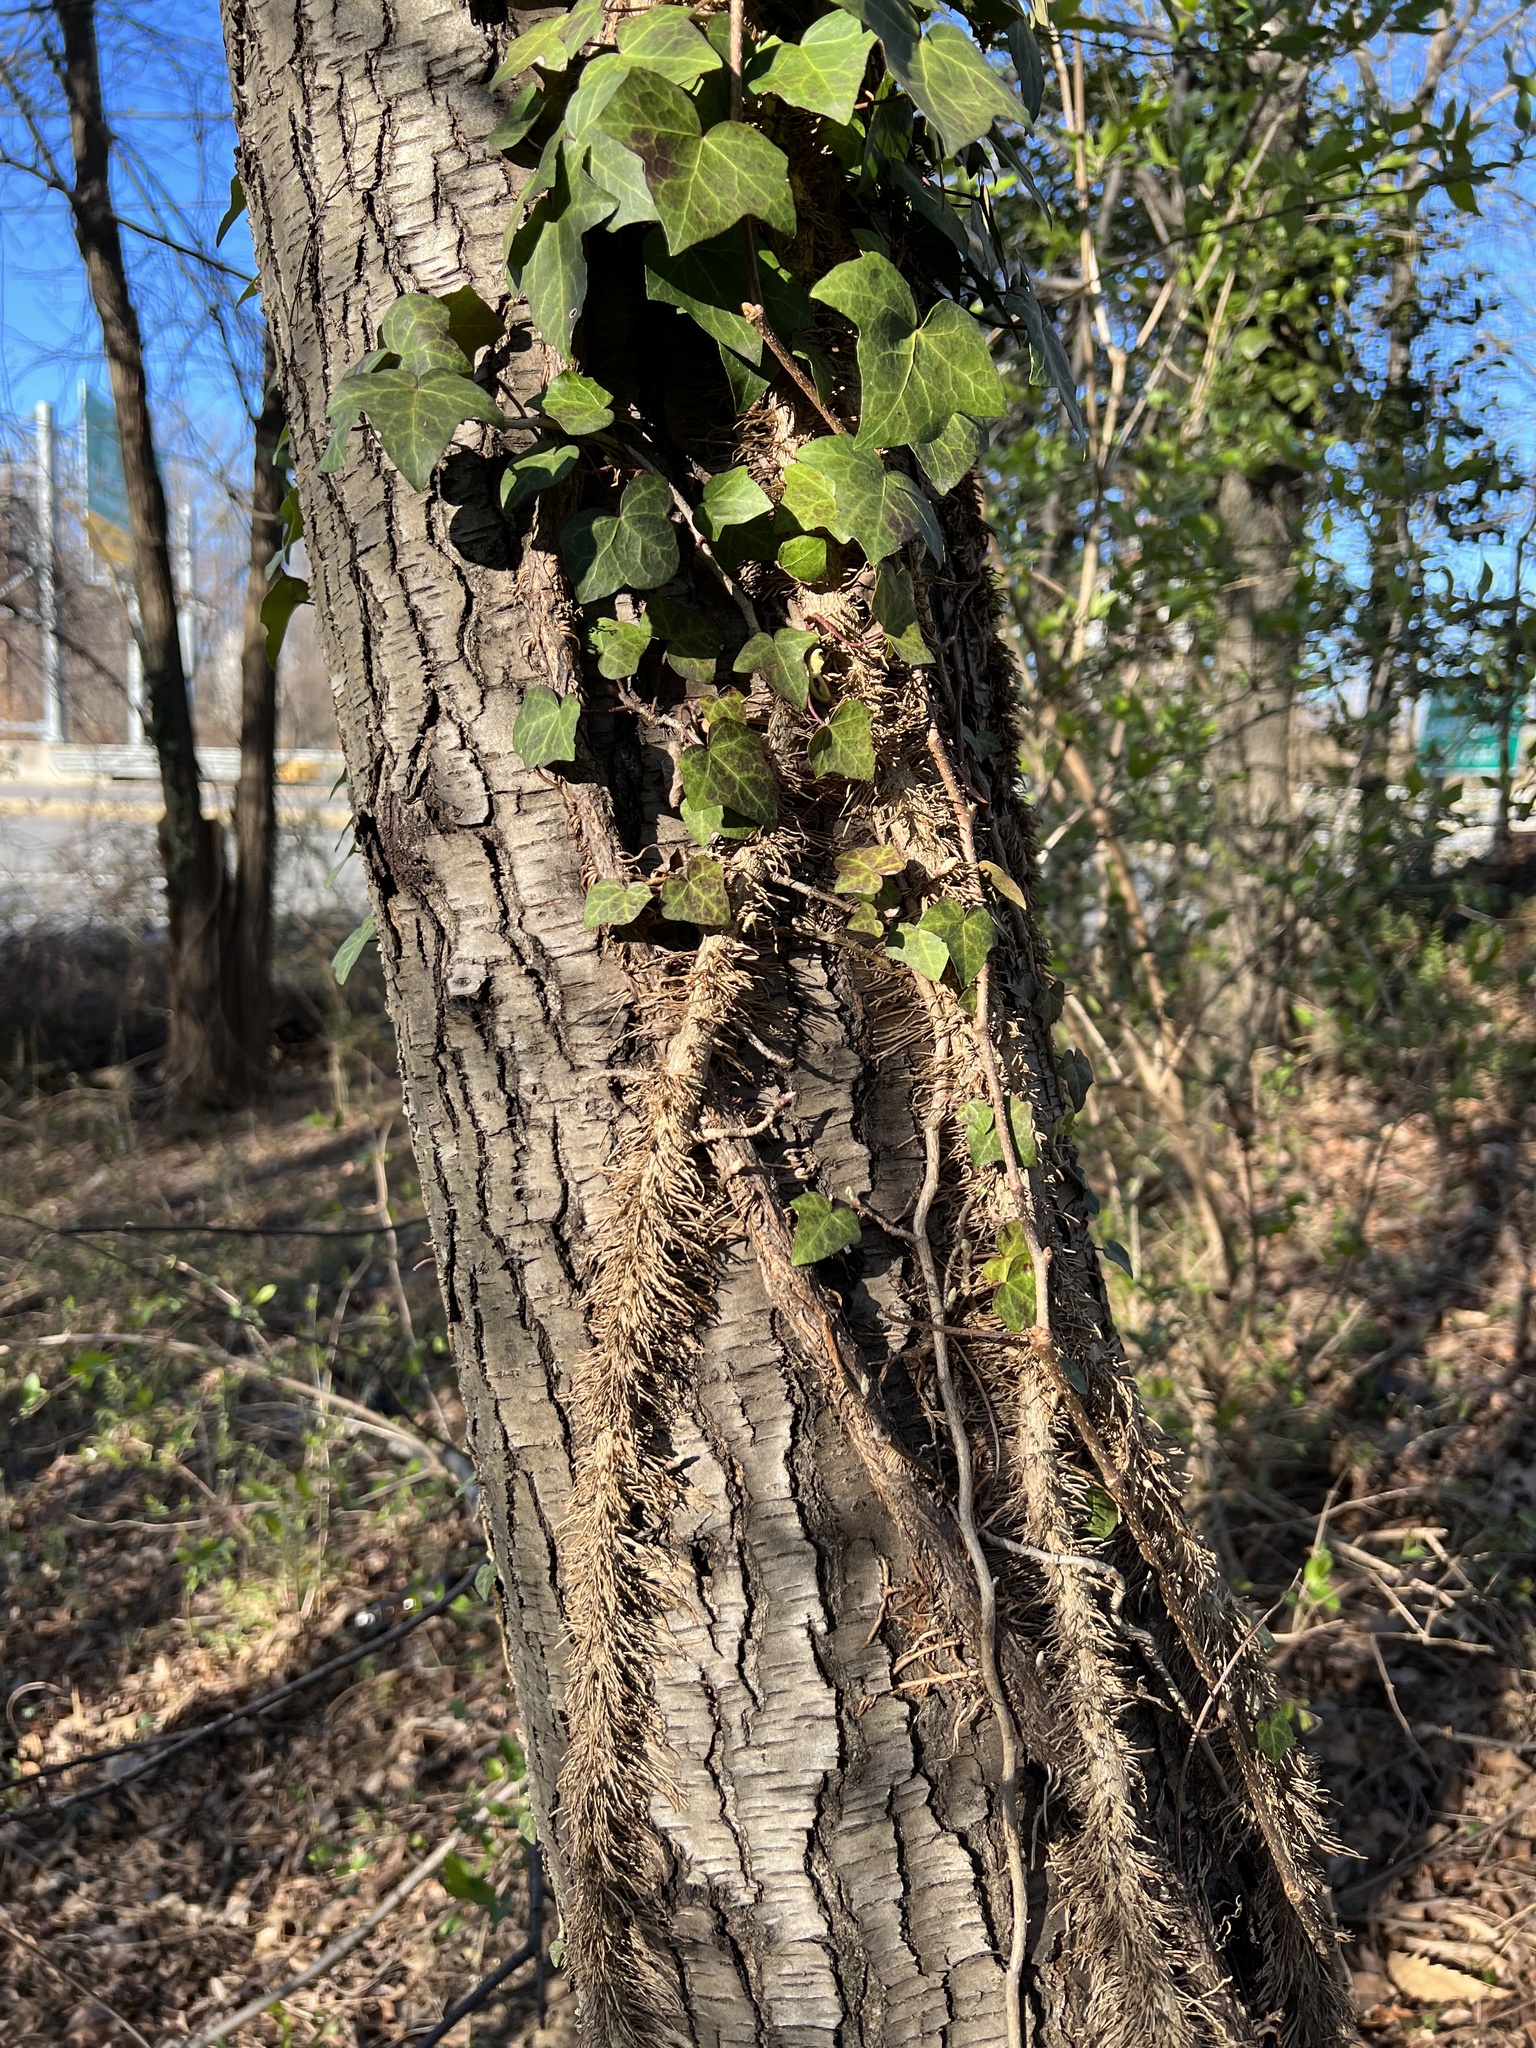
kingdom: Plantae
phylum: Tracheophyta
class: Magnoliopsida
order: Apiales
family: Araliaceae
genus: Hedera
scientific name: Hedera helix
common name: Ivy
